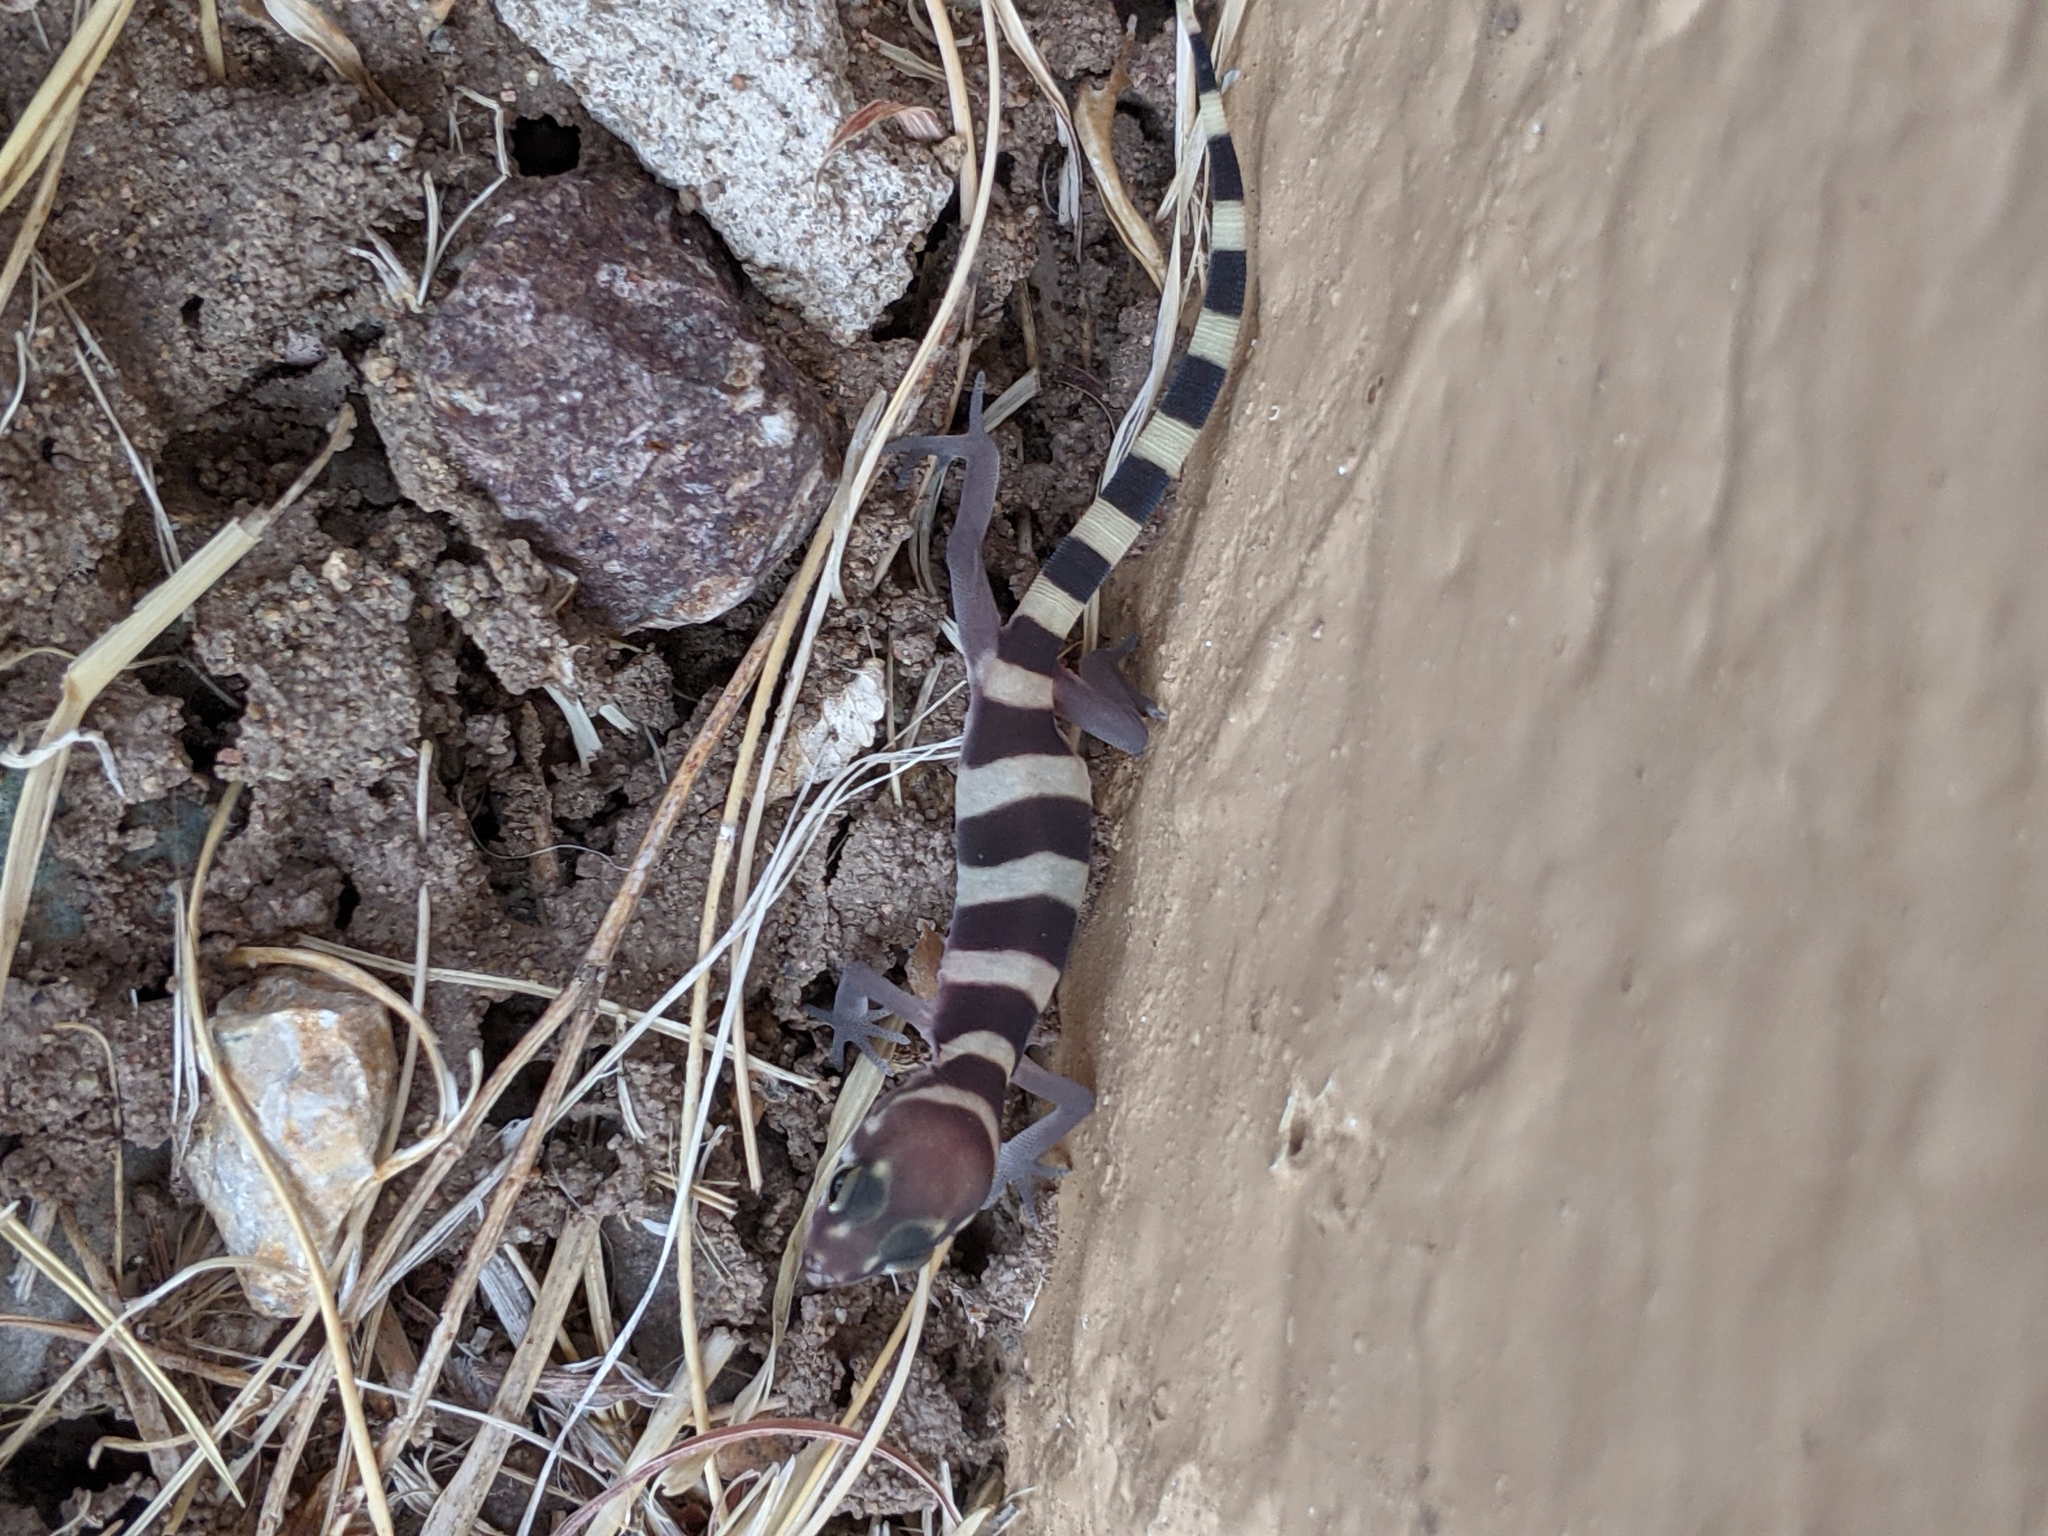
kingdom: Animalia
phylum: Chordata
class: Squamata
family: Eublepharidae
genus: Coleonyx
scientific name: Coleonyx brevis
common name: Texas banded gecko
